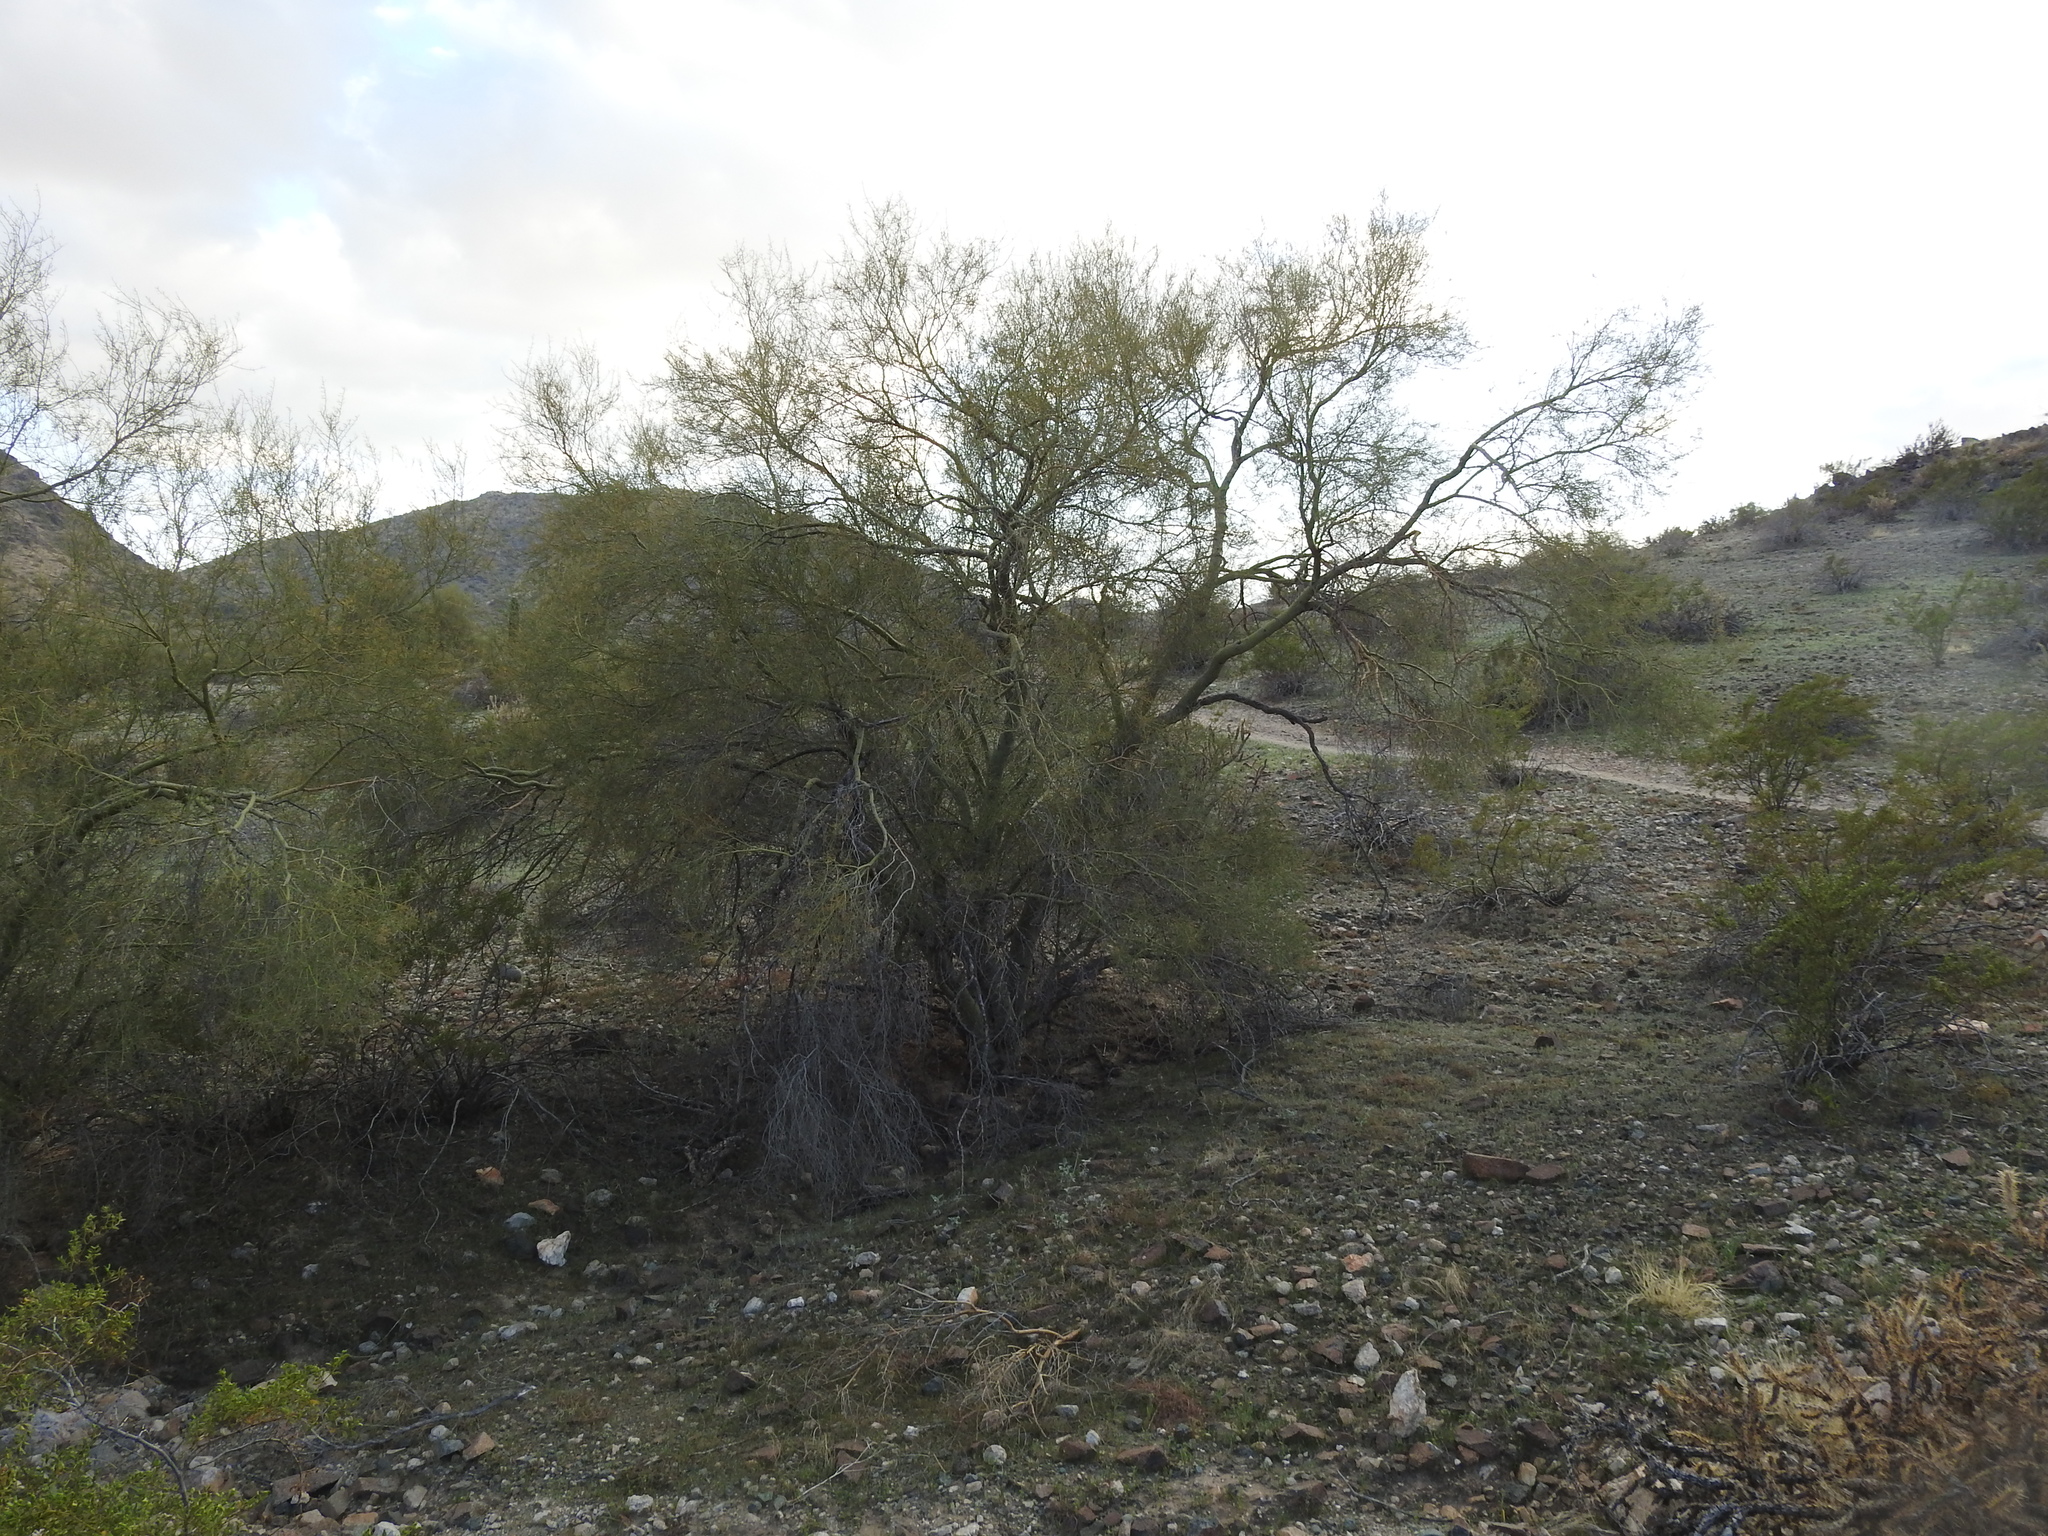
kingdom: Plantae
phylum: Tracheophyta
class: Magnoliopsida
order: Fabales
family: Fabaceae
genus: Parkinsonia
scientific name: Parkinsonia microphylla
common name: Yellow paloverde
